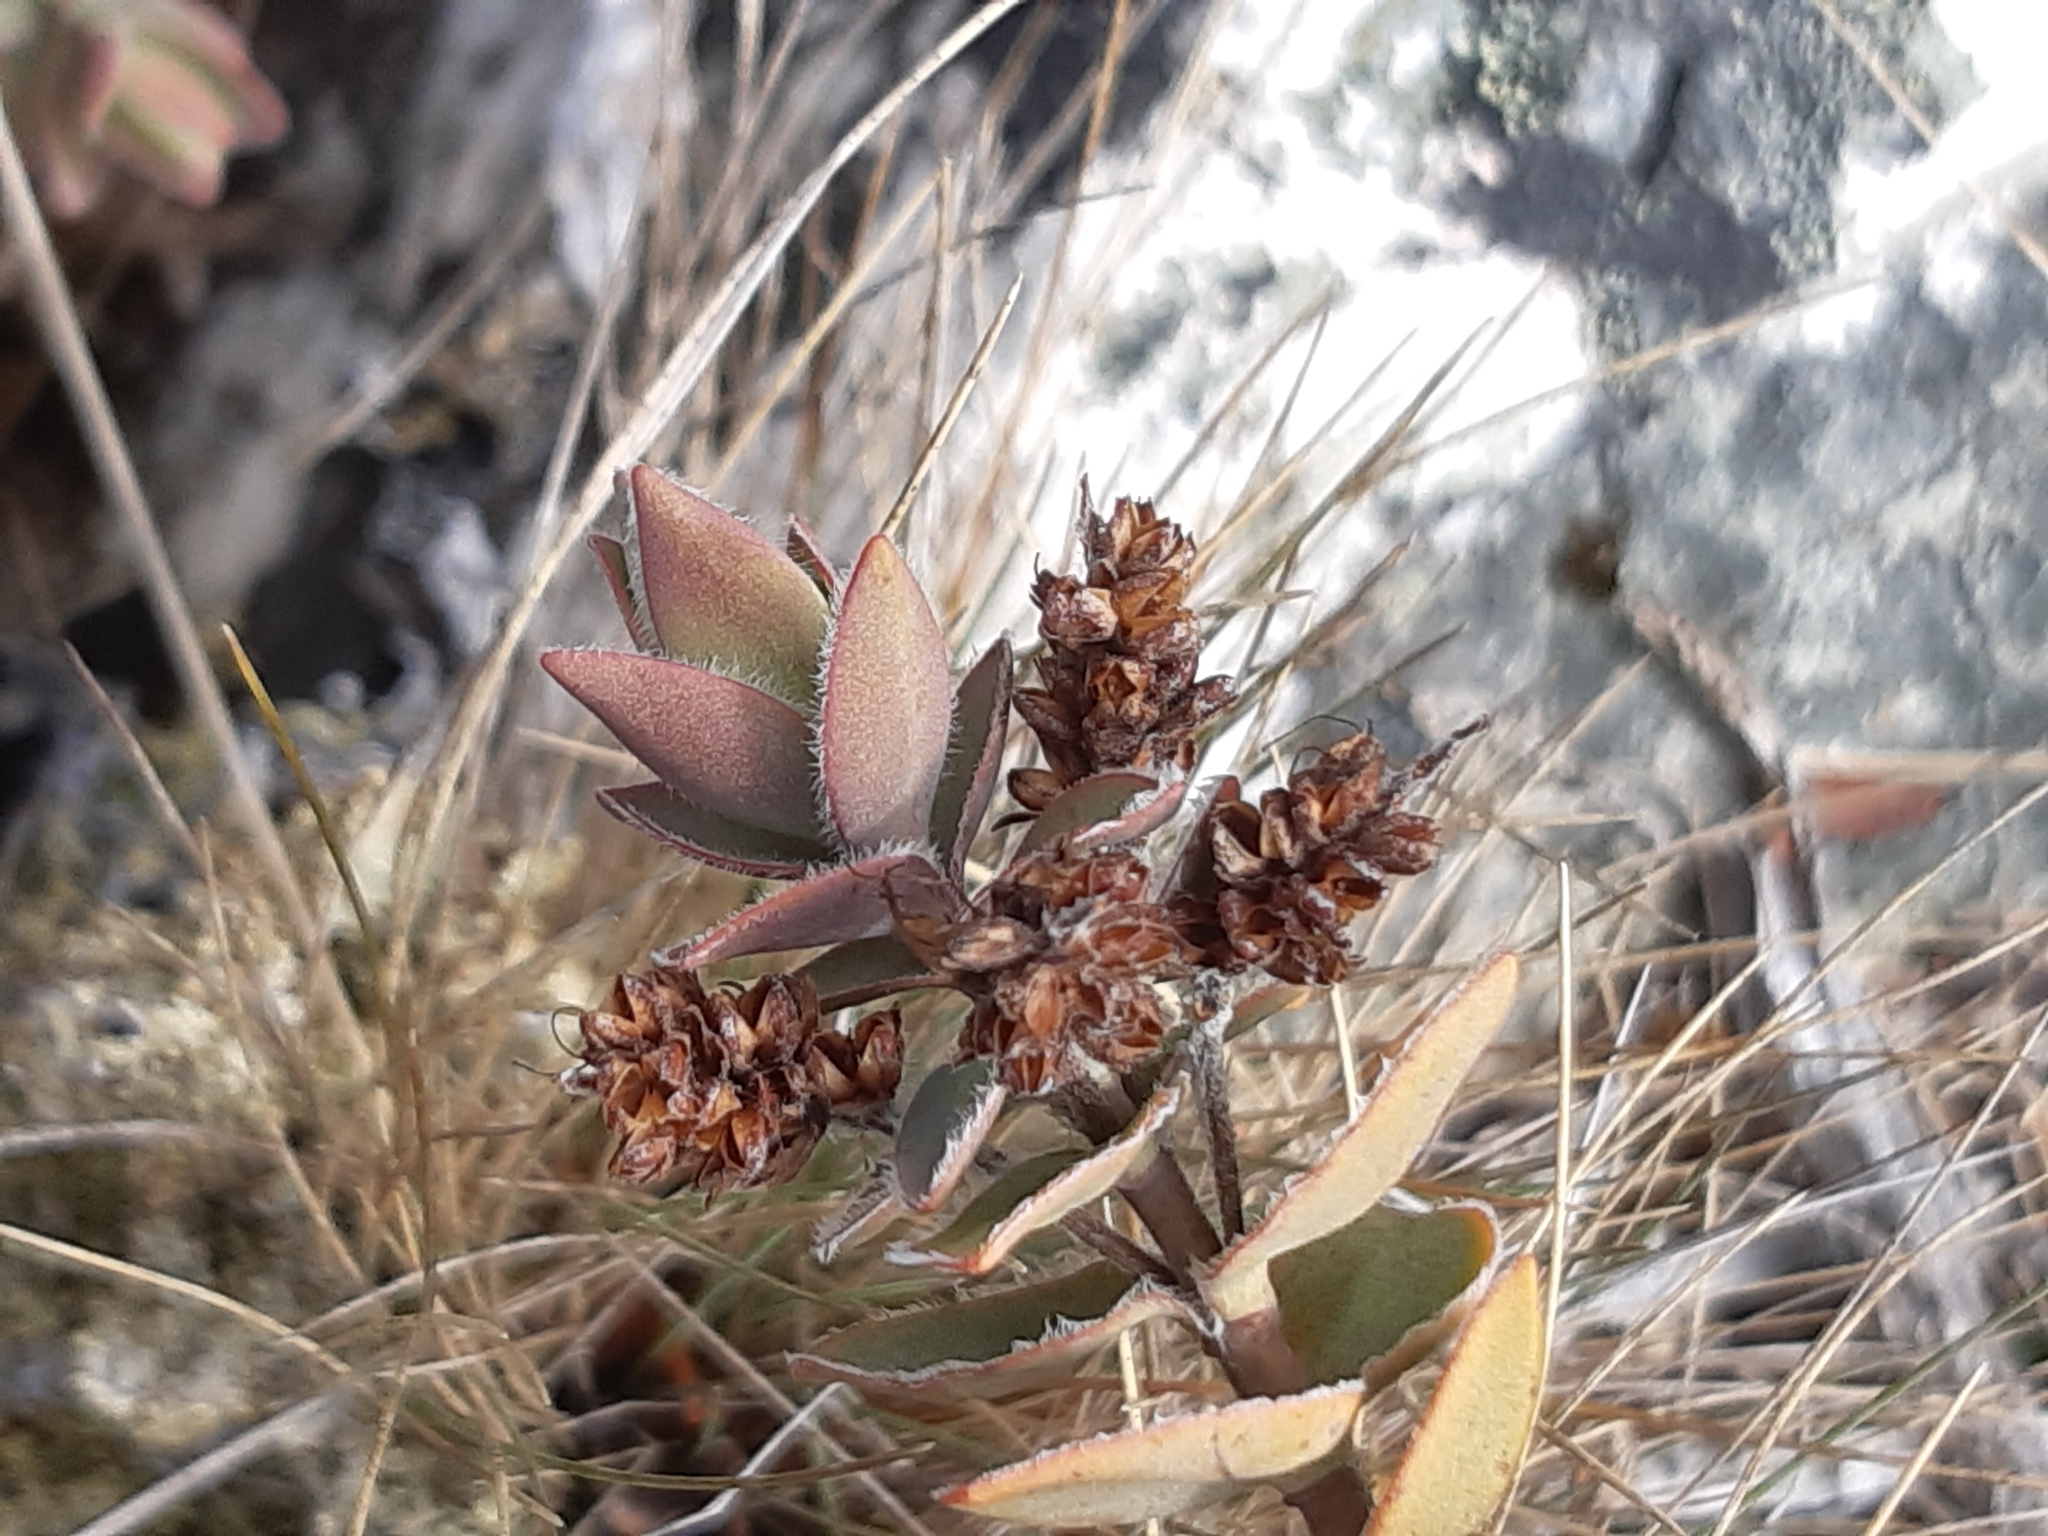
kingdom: Plantae
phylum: Tracheophyta
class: Magnoliopsida
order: Lamiales
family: Plantaginaceae
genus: Veronica
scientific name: Veronica gibbsii
